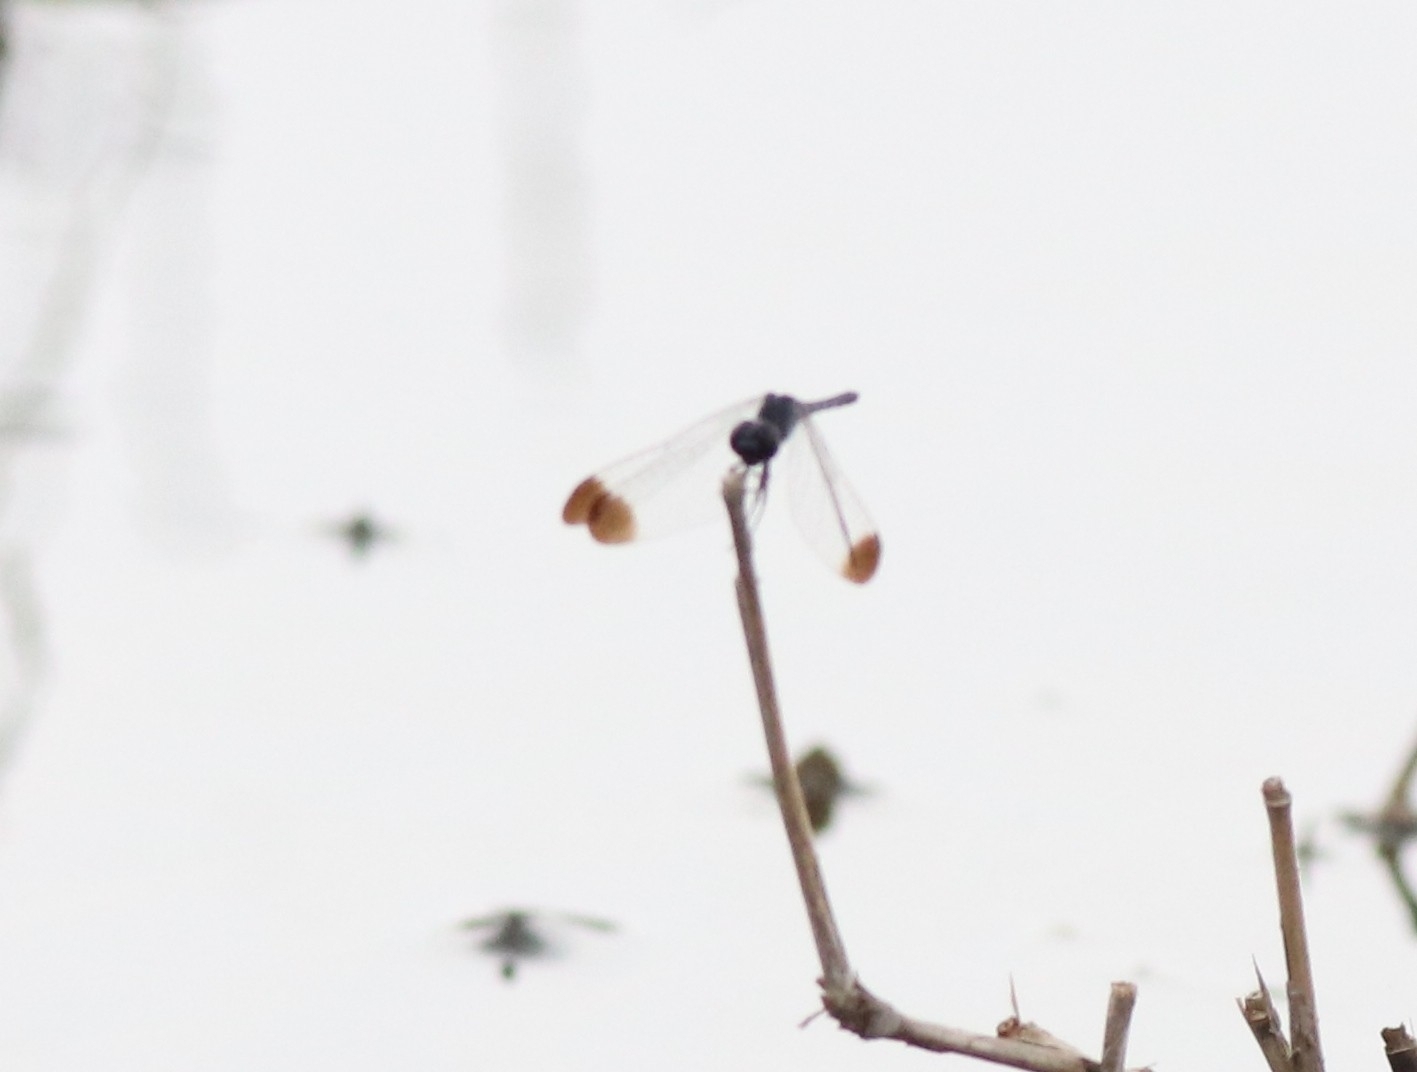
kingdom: Animalia
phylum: Arthropoda
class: Insecta
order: Odonata
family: Libellulidae
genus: Diplacodes
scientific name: Diplacodes nebulosa
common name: Black-tipped percher
